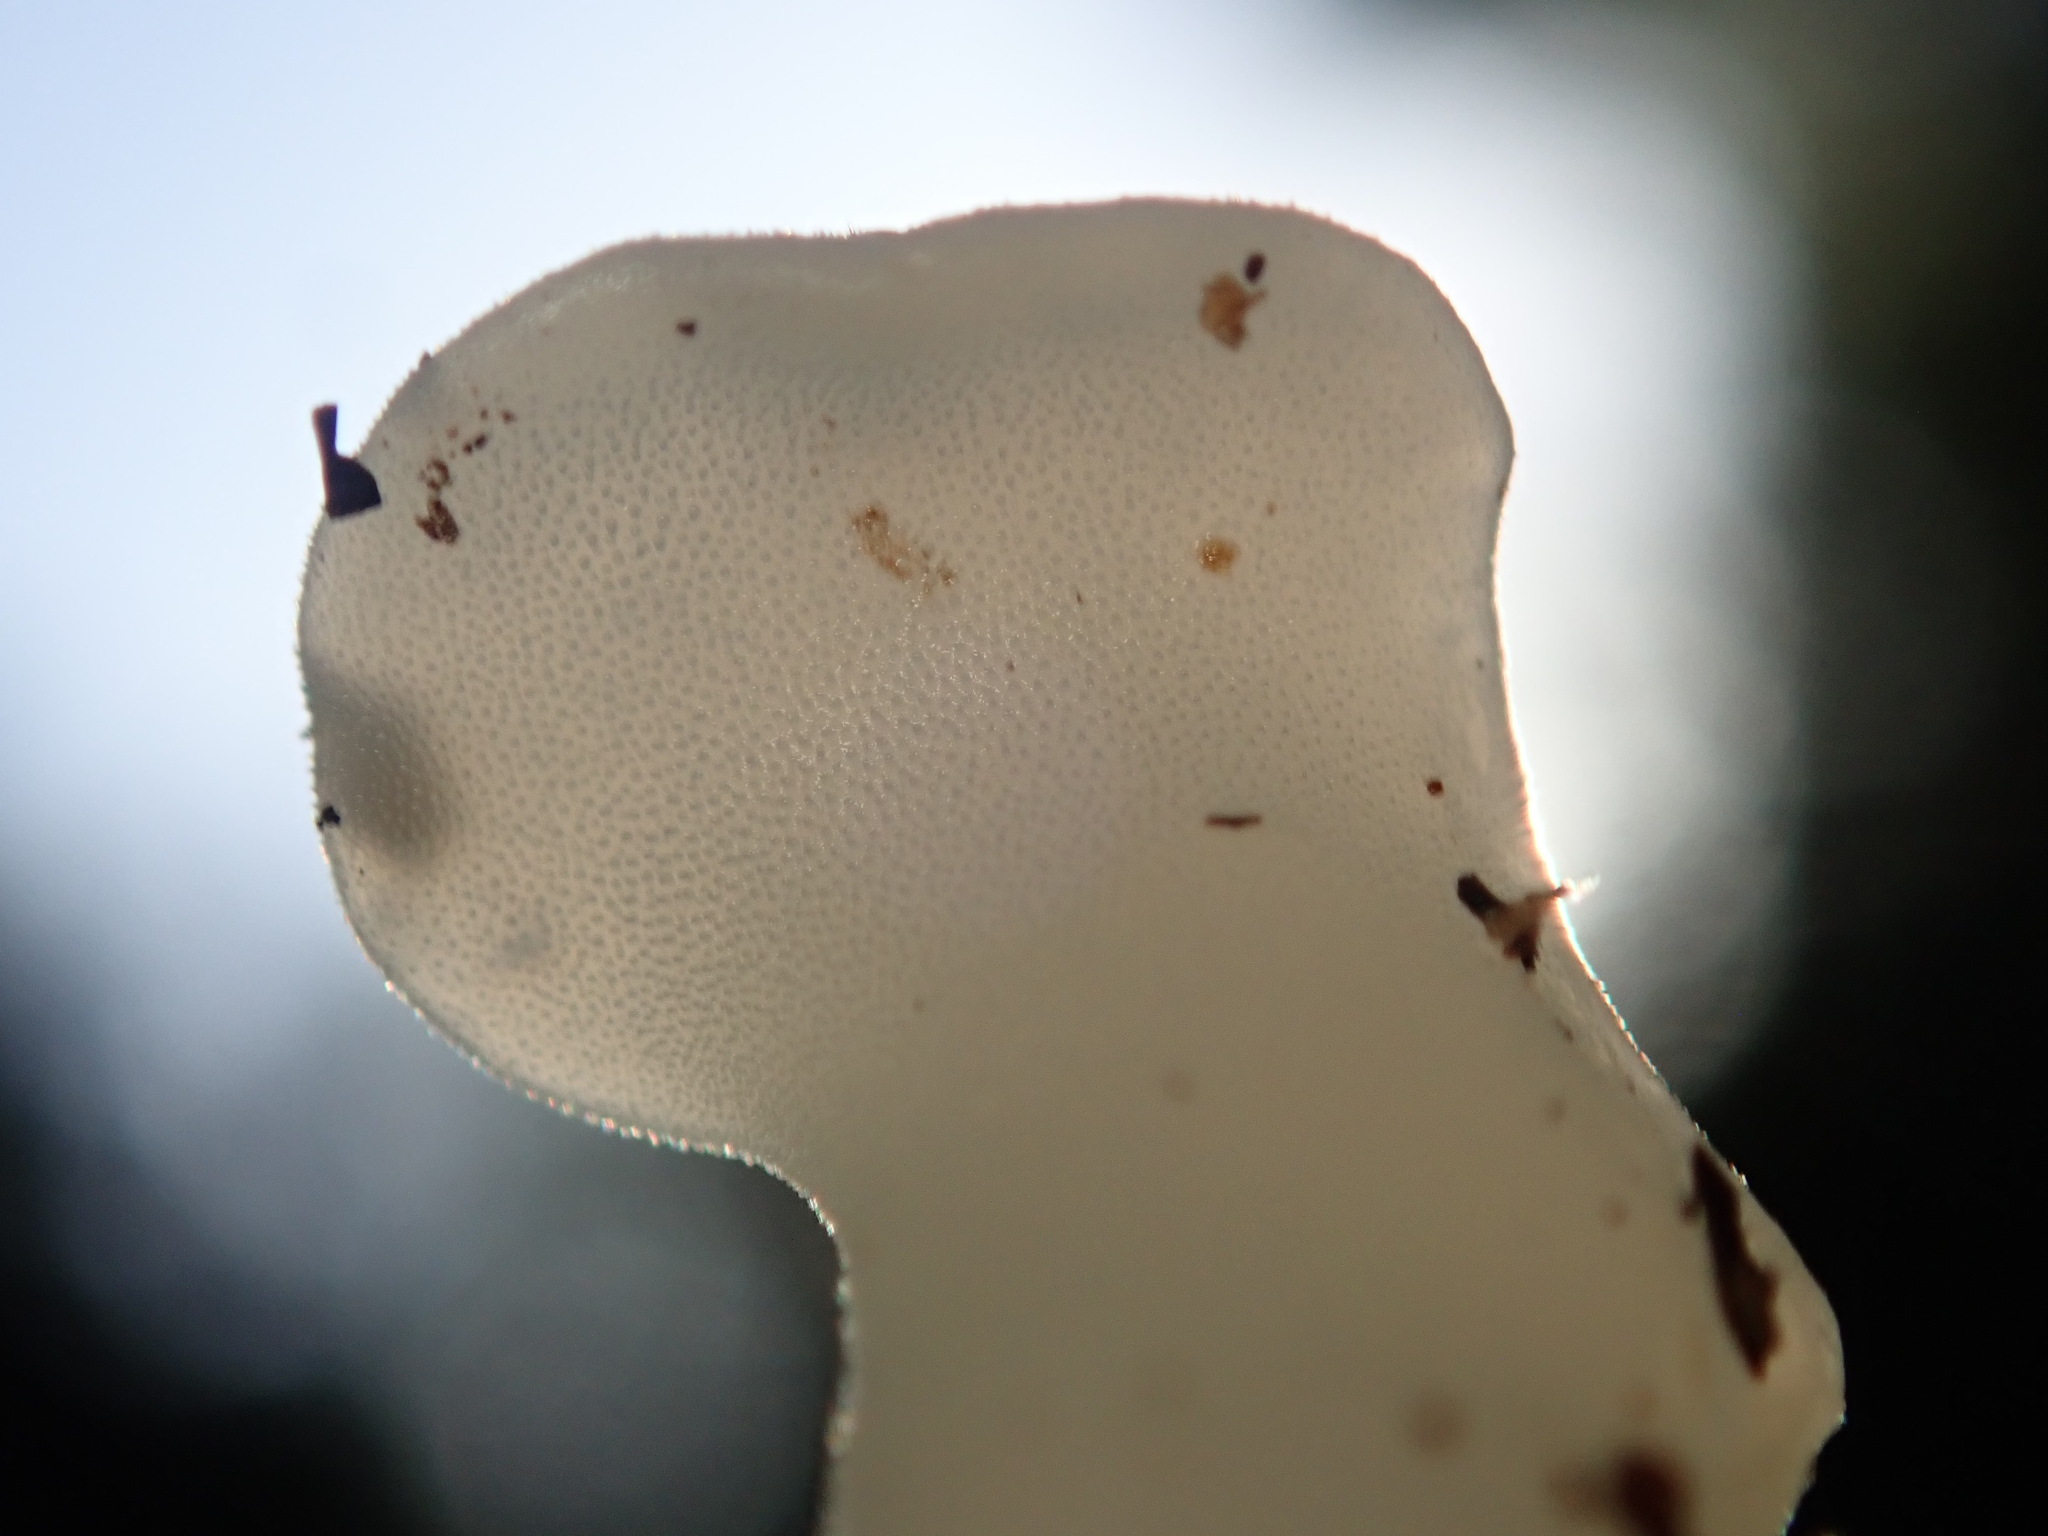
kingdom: Fungi
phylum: Basidiomycota
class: Agaricomycetes
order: Auriculariales
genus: Pseudohydnum
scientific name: Pseudohydnum gelatinosum
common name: Jelly tongue
